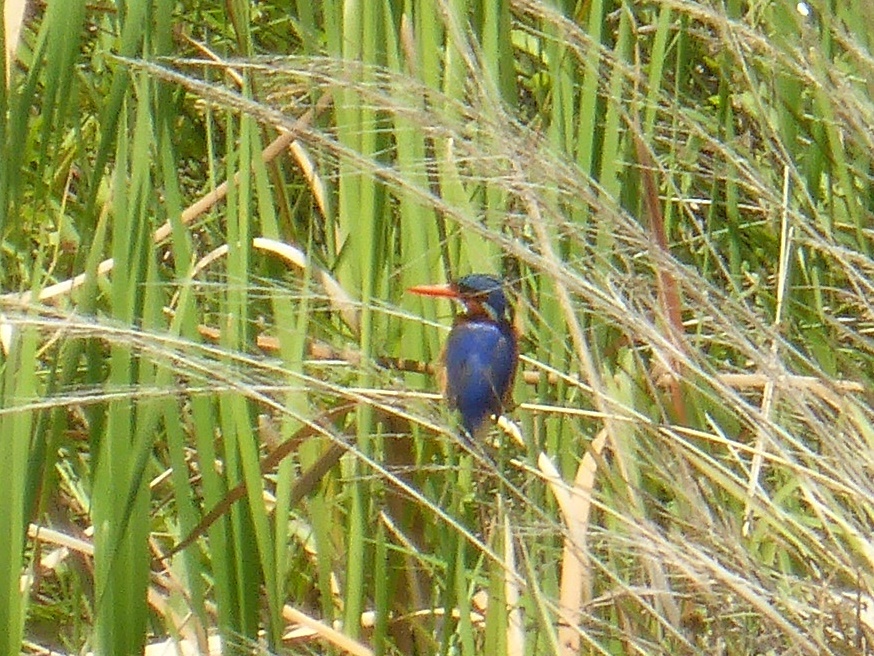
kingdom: Animalia
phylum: Chordata
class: Aves
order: Coraciiformes
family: Alcedinidae
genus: Corythornis
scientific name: Corythornis cristatus
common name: Malachite kingfisher
